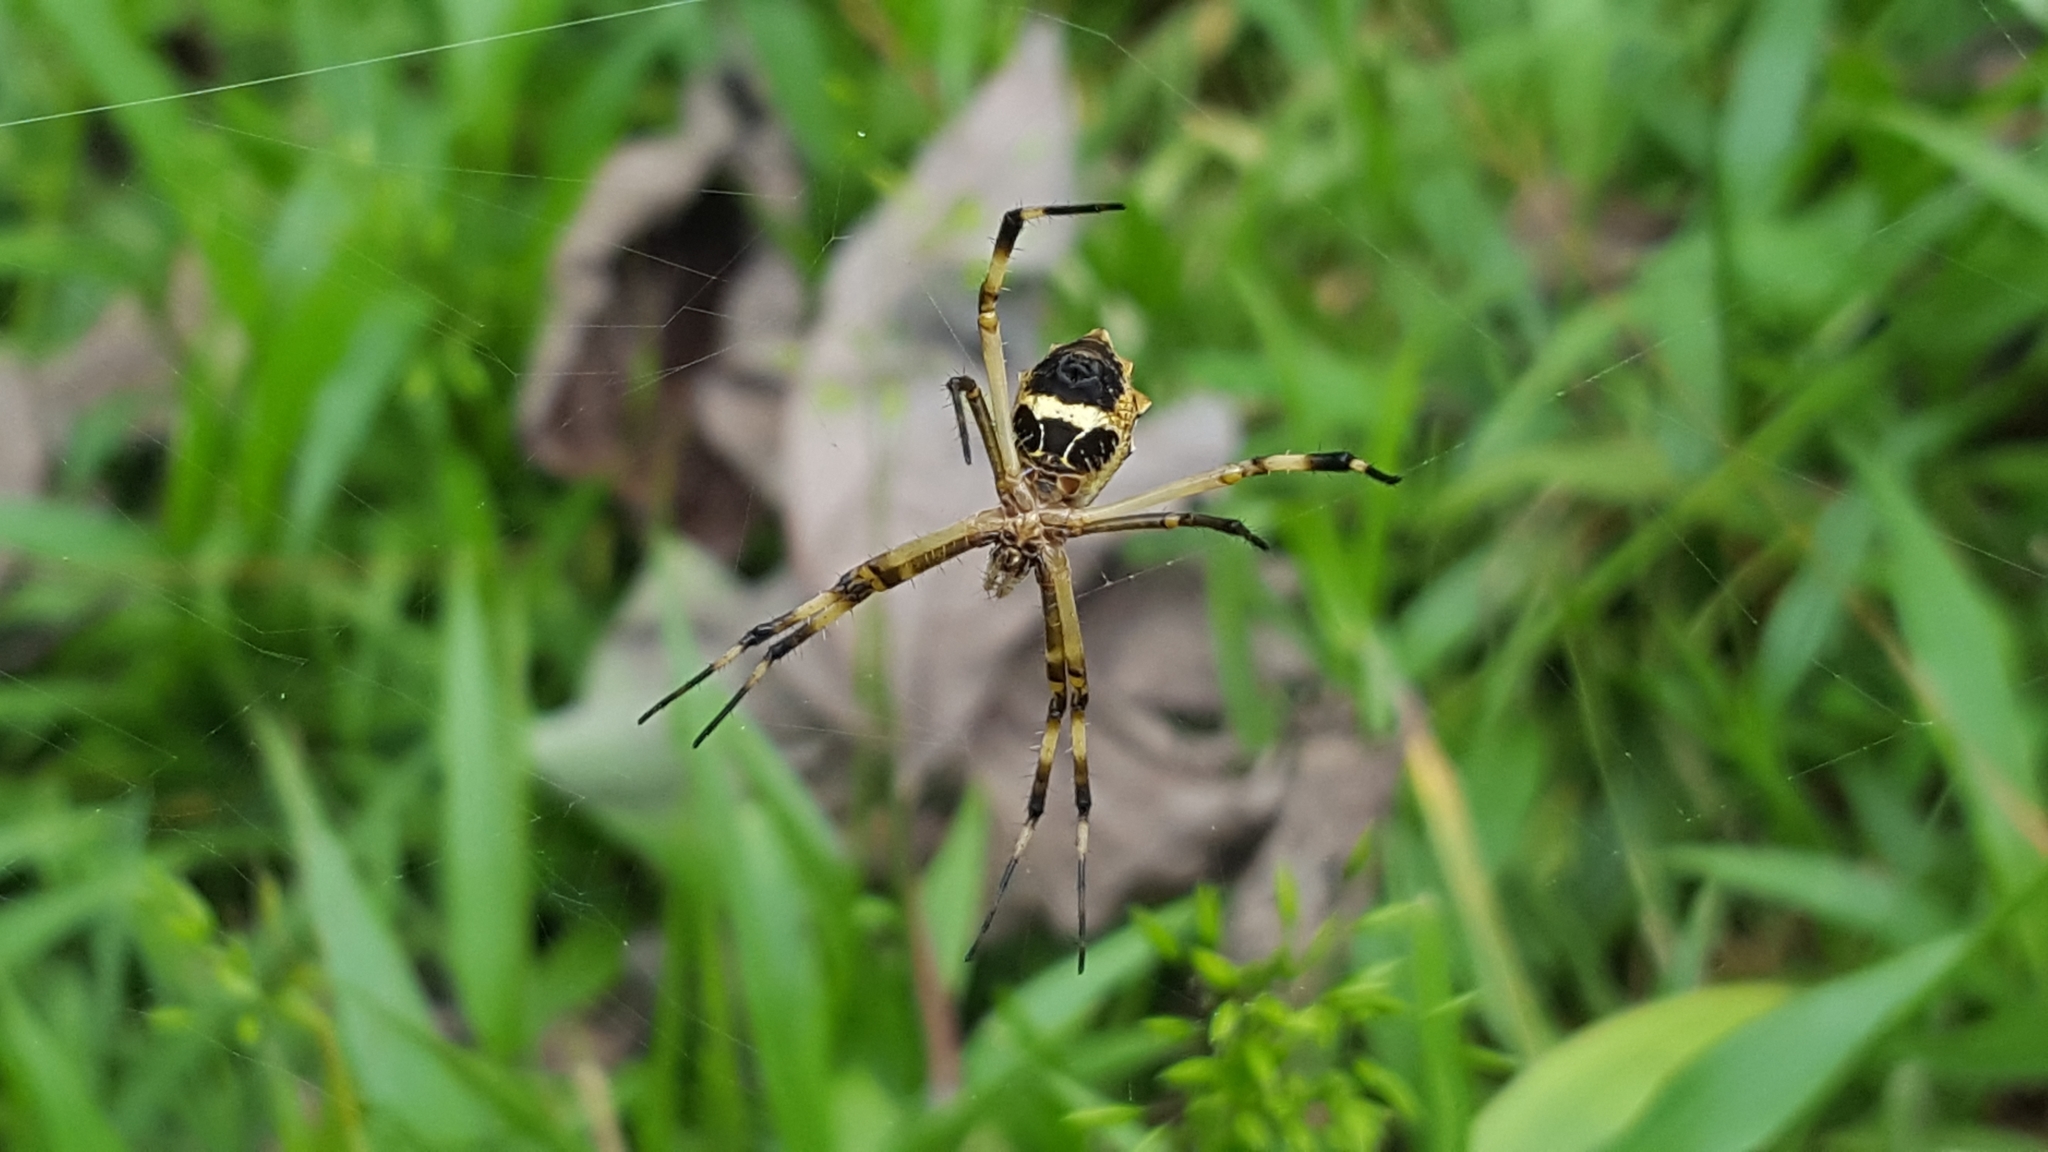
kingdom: Animalia
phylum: Arthropoda
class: Arachnida
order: Araneae
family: Araneidae
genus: Argiope
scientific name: Argiope argentata
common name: Orb weavers
